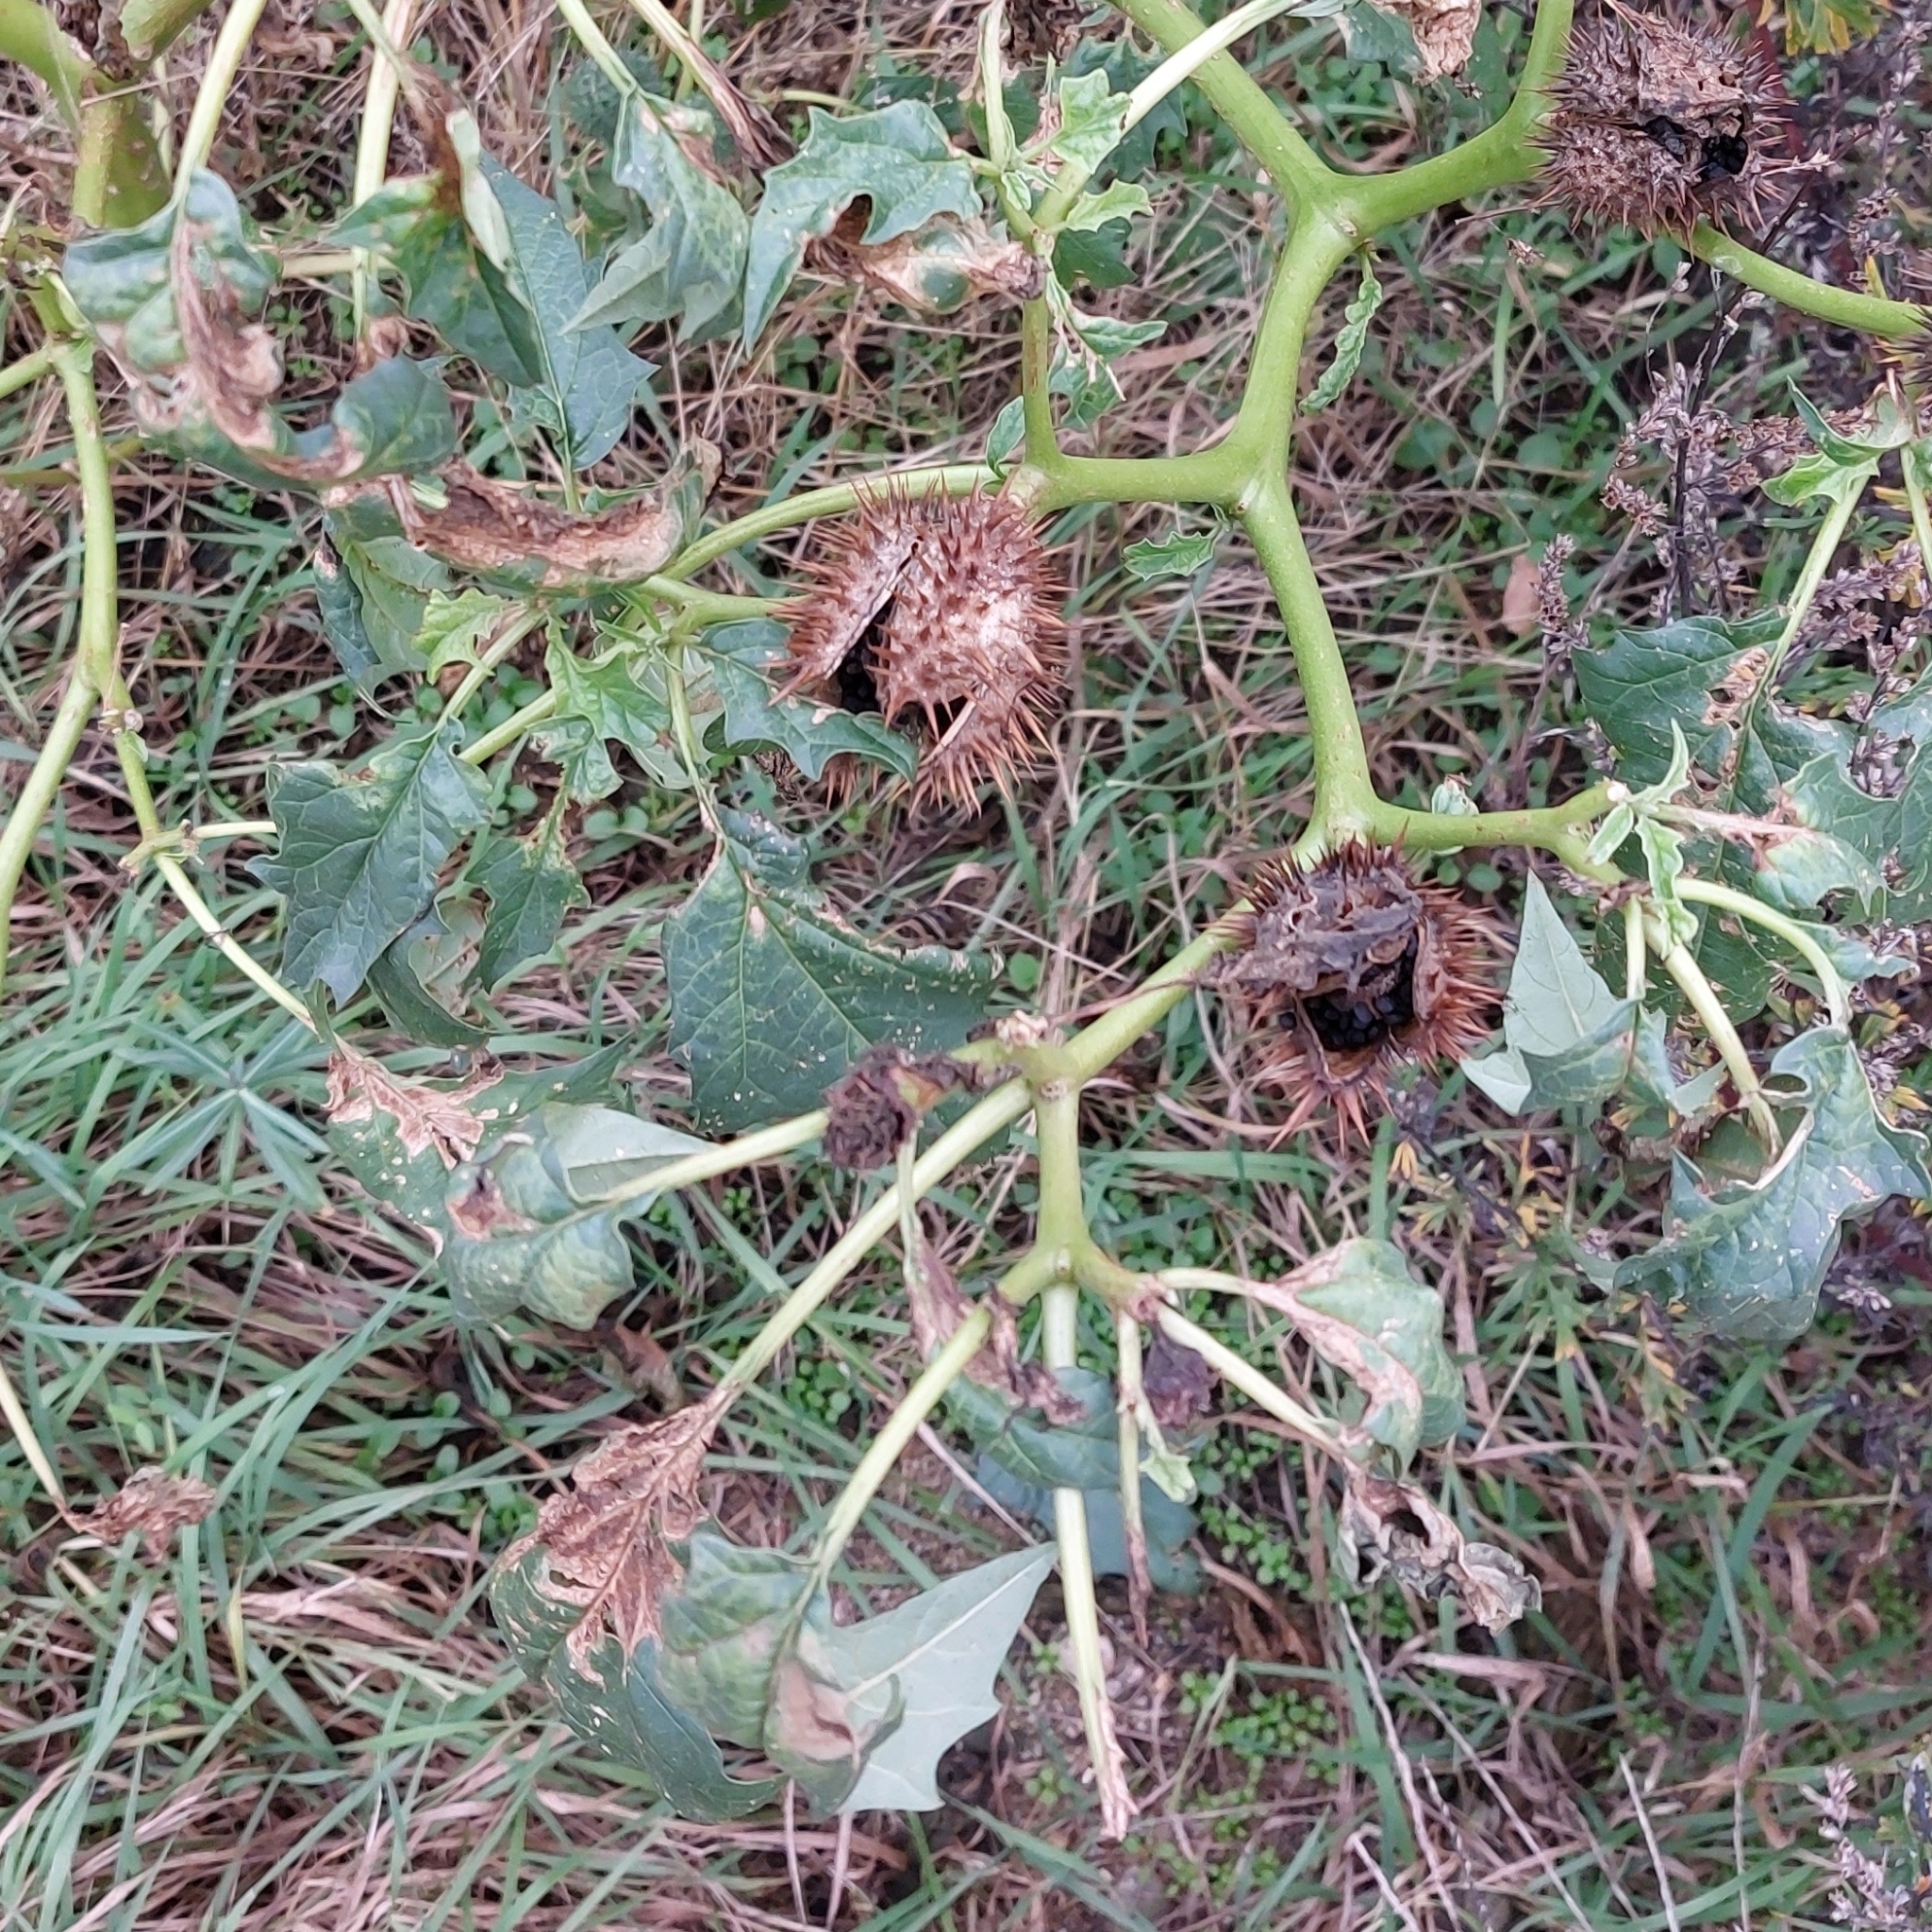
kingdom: Plantae
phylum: Tracheophyta
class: Magnoliopsida
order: Solanales
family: Solanaceae
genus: Datura
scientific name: Datura stramonium
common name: Thorn-apple
